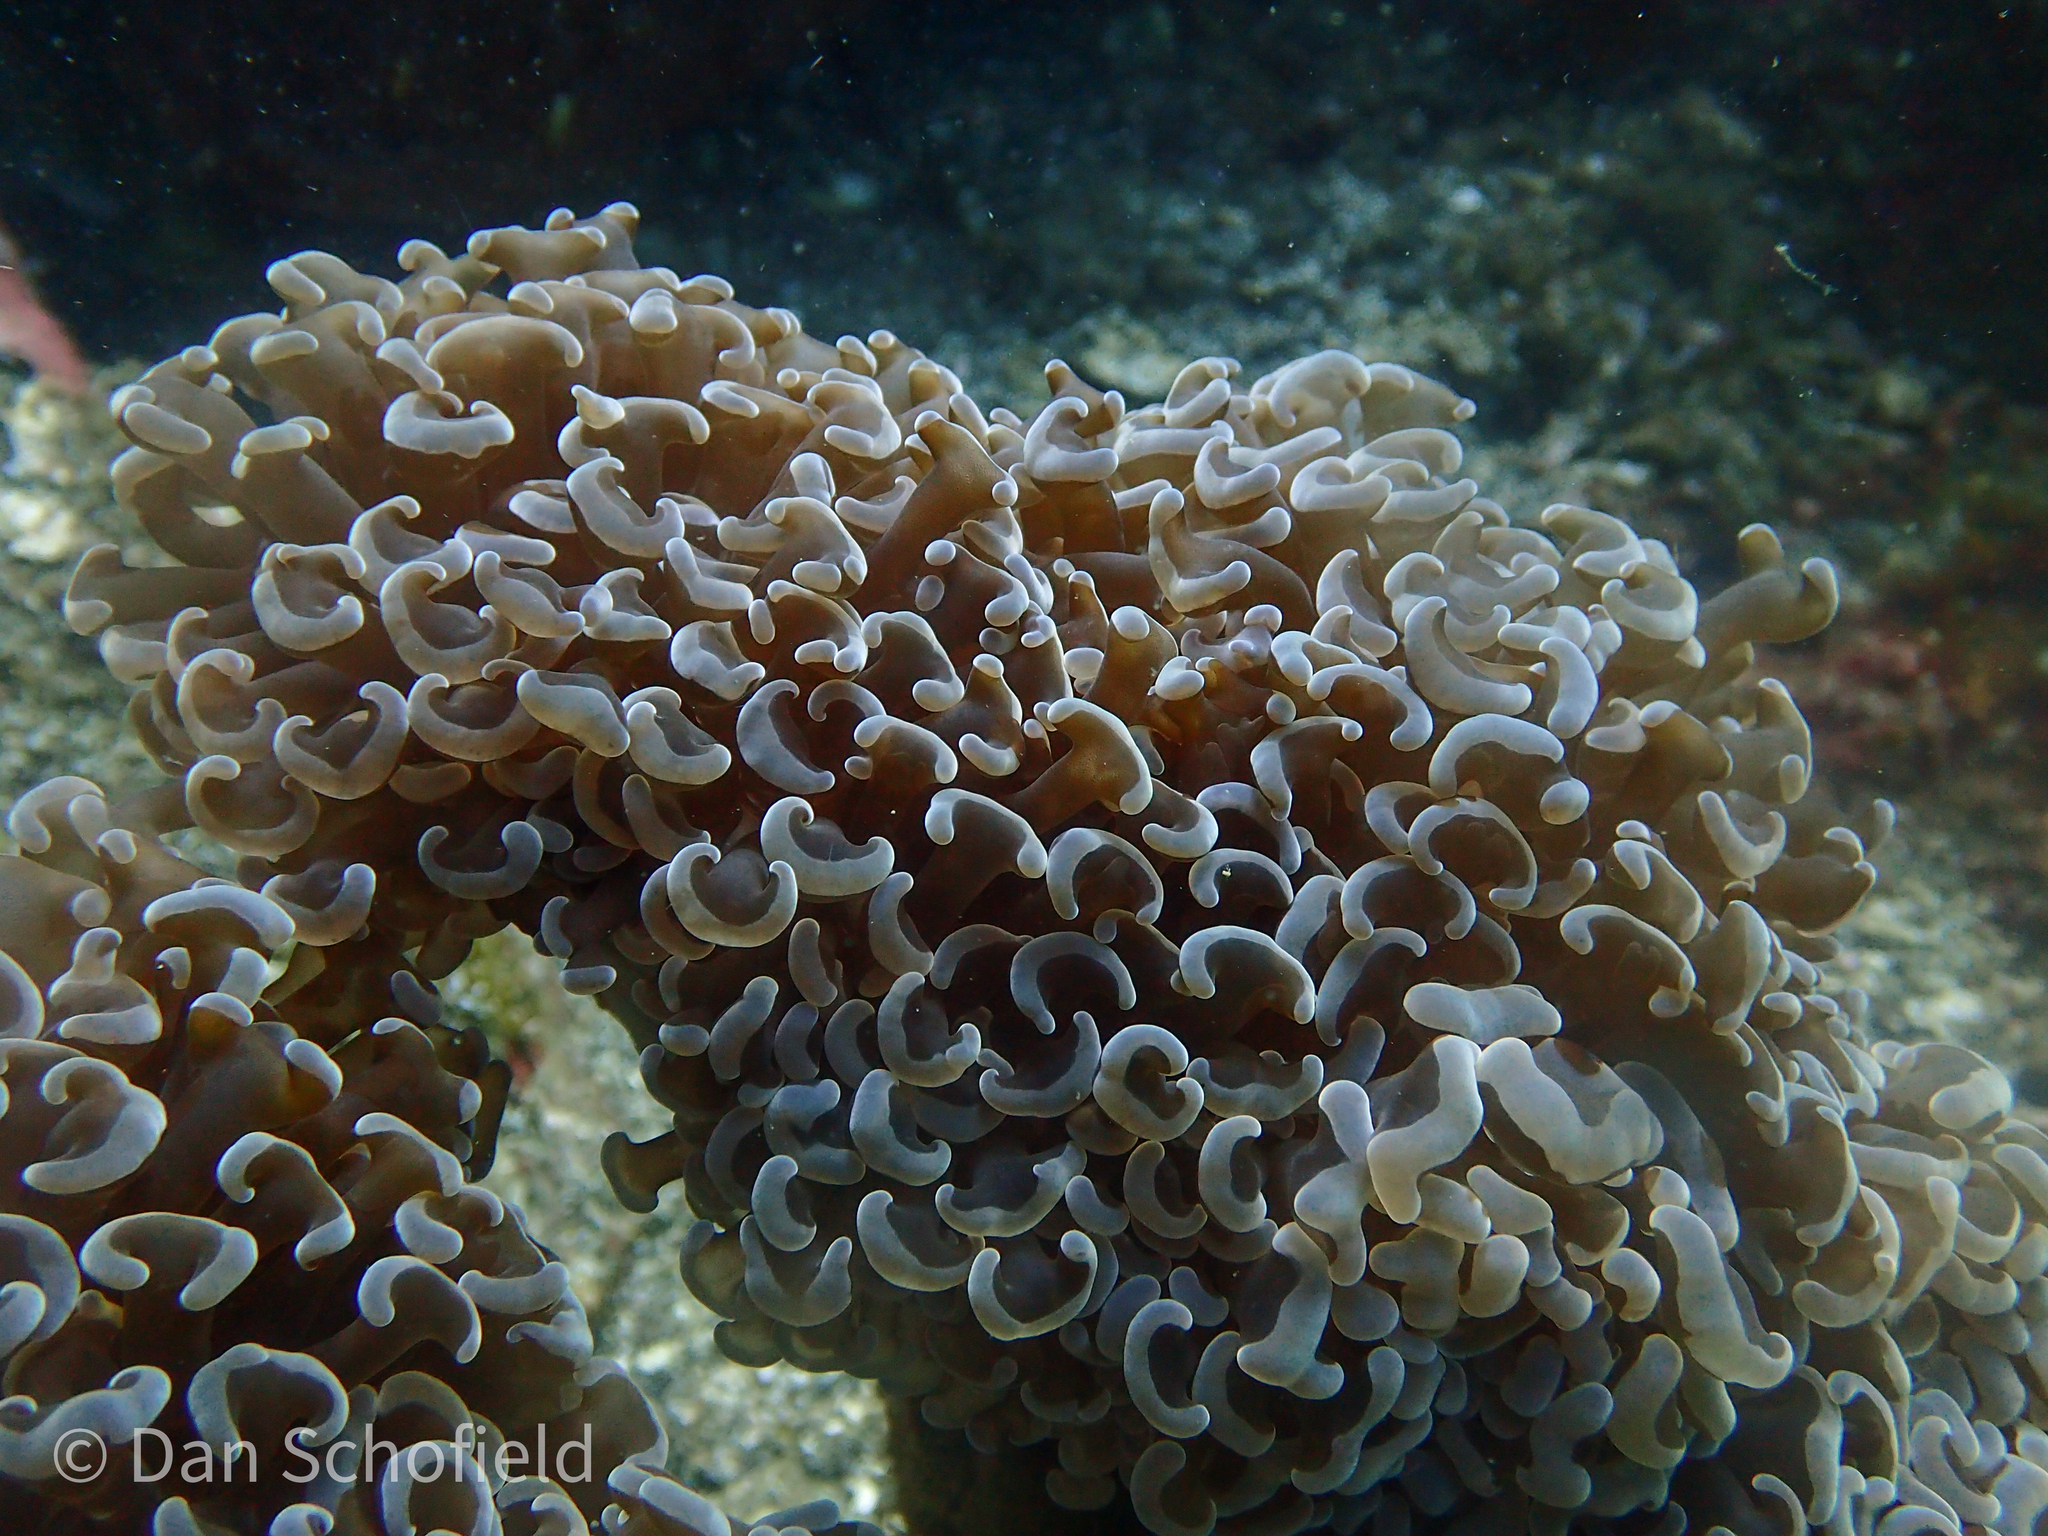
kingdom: Animalia
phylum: Cnidaria
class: Anthozoa
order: Scleractinia
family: Euphylliidae
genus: Fimbriaphyllia
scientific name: Fimbriaphyllia ancora
